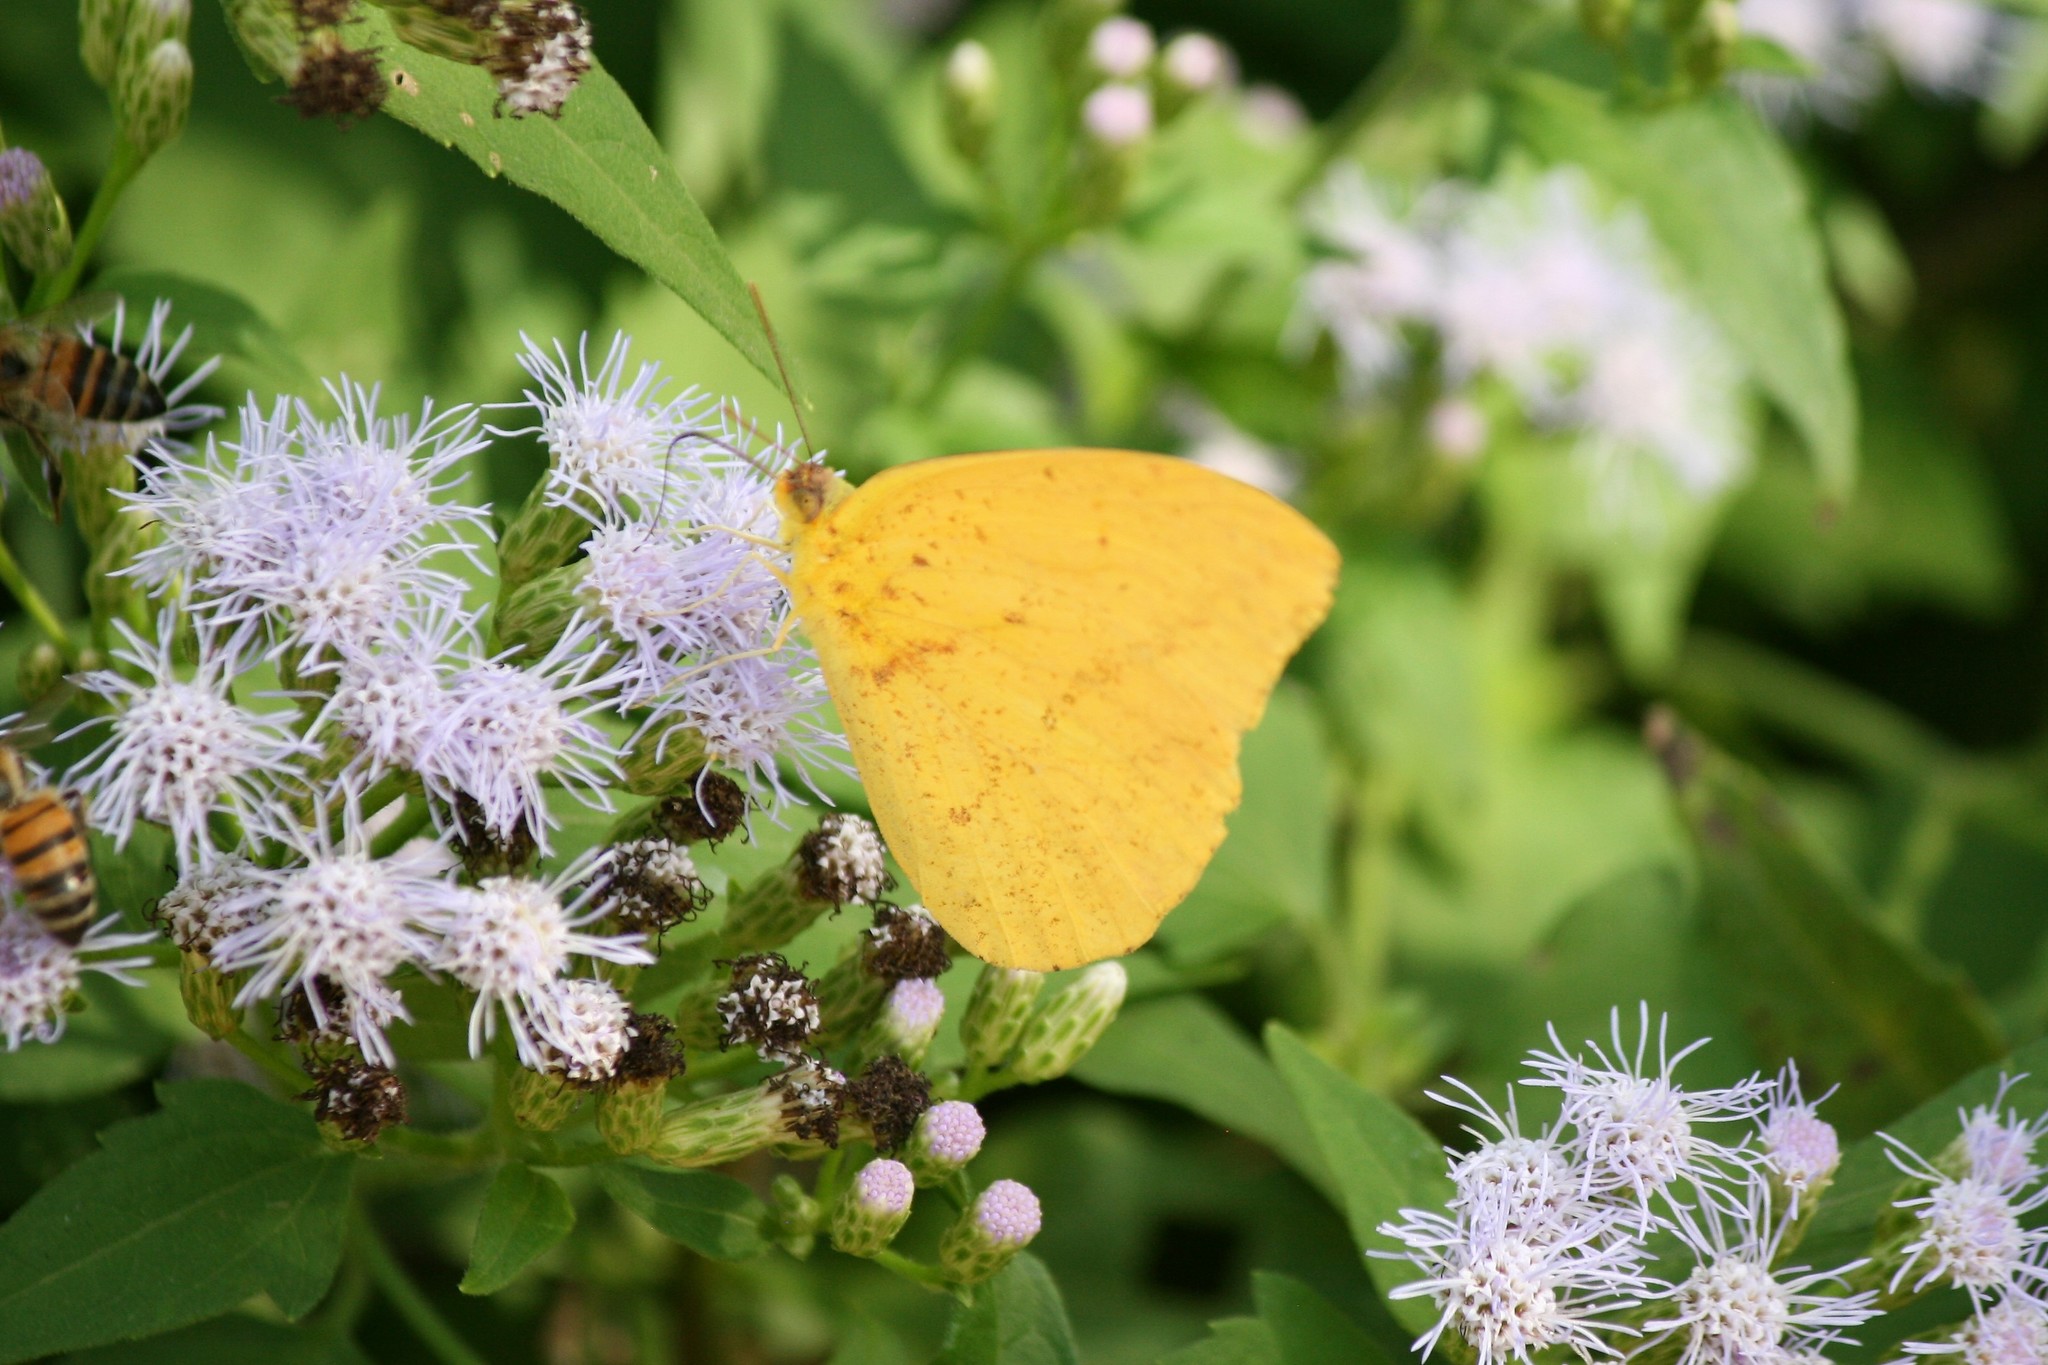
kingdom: Animalia
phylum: Arthropoda
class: Insecta
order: Lepidoptera
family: Pieridae
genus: Phoebis
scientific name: Phoebis agarithe
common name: Large orange sulphur
